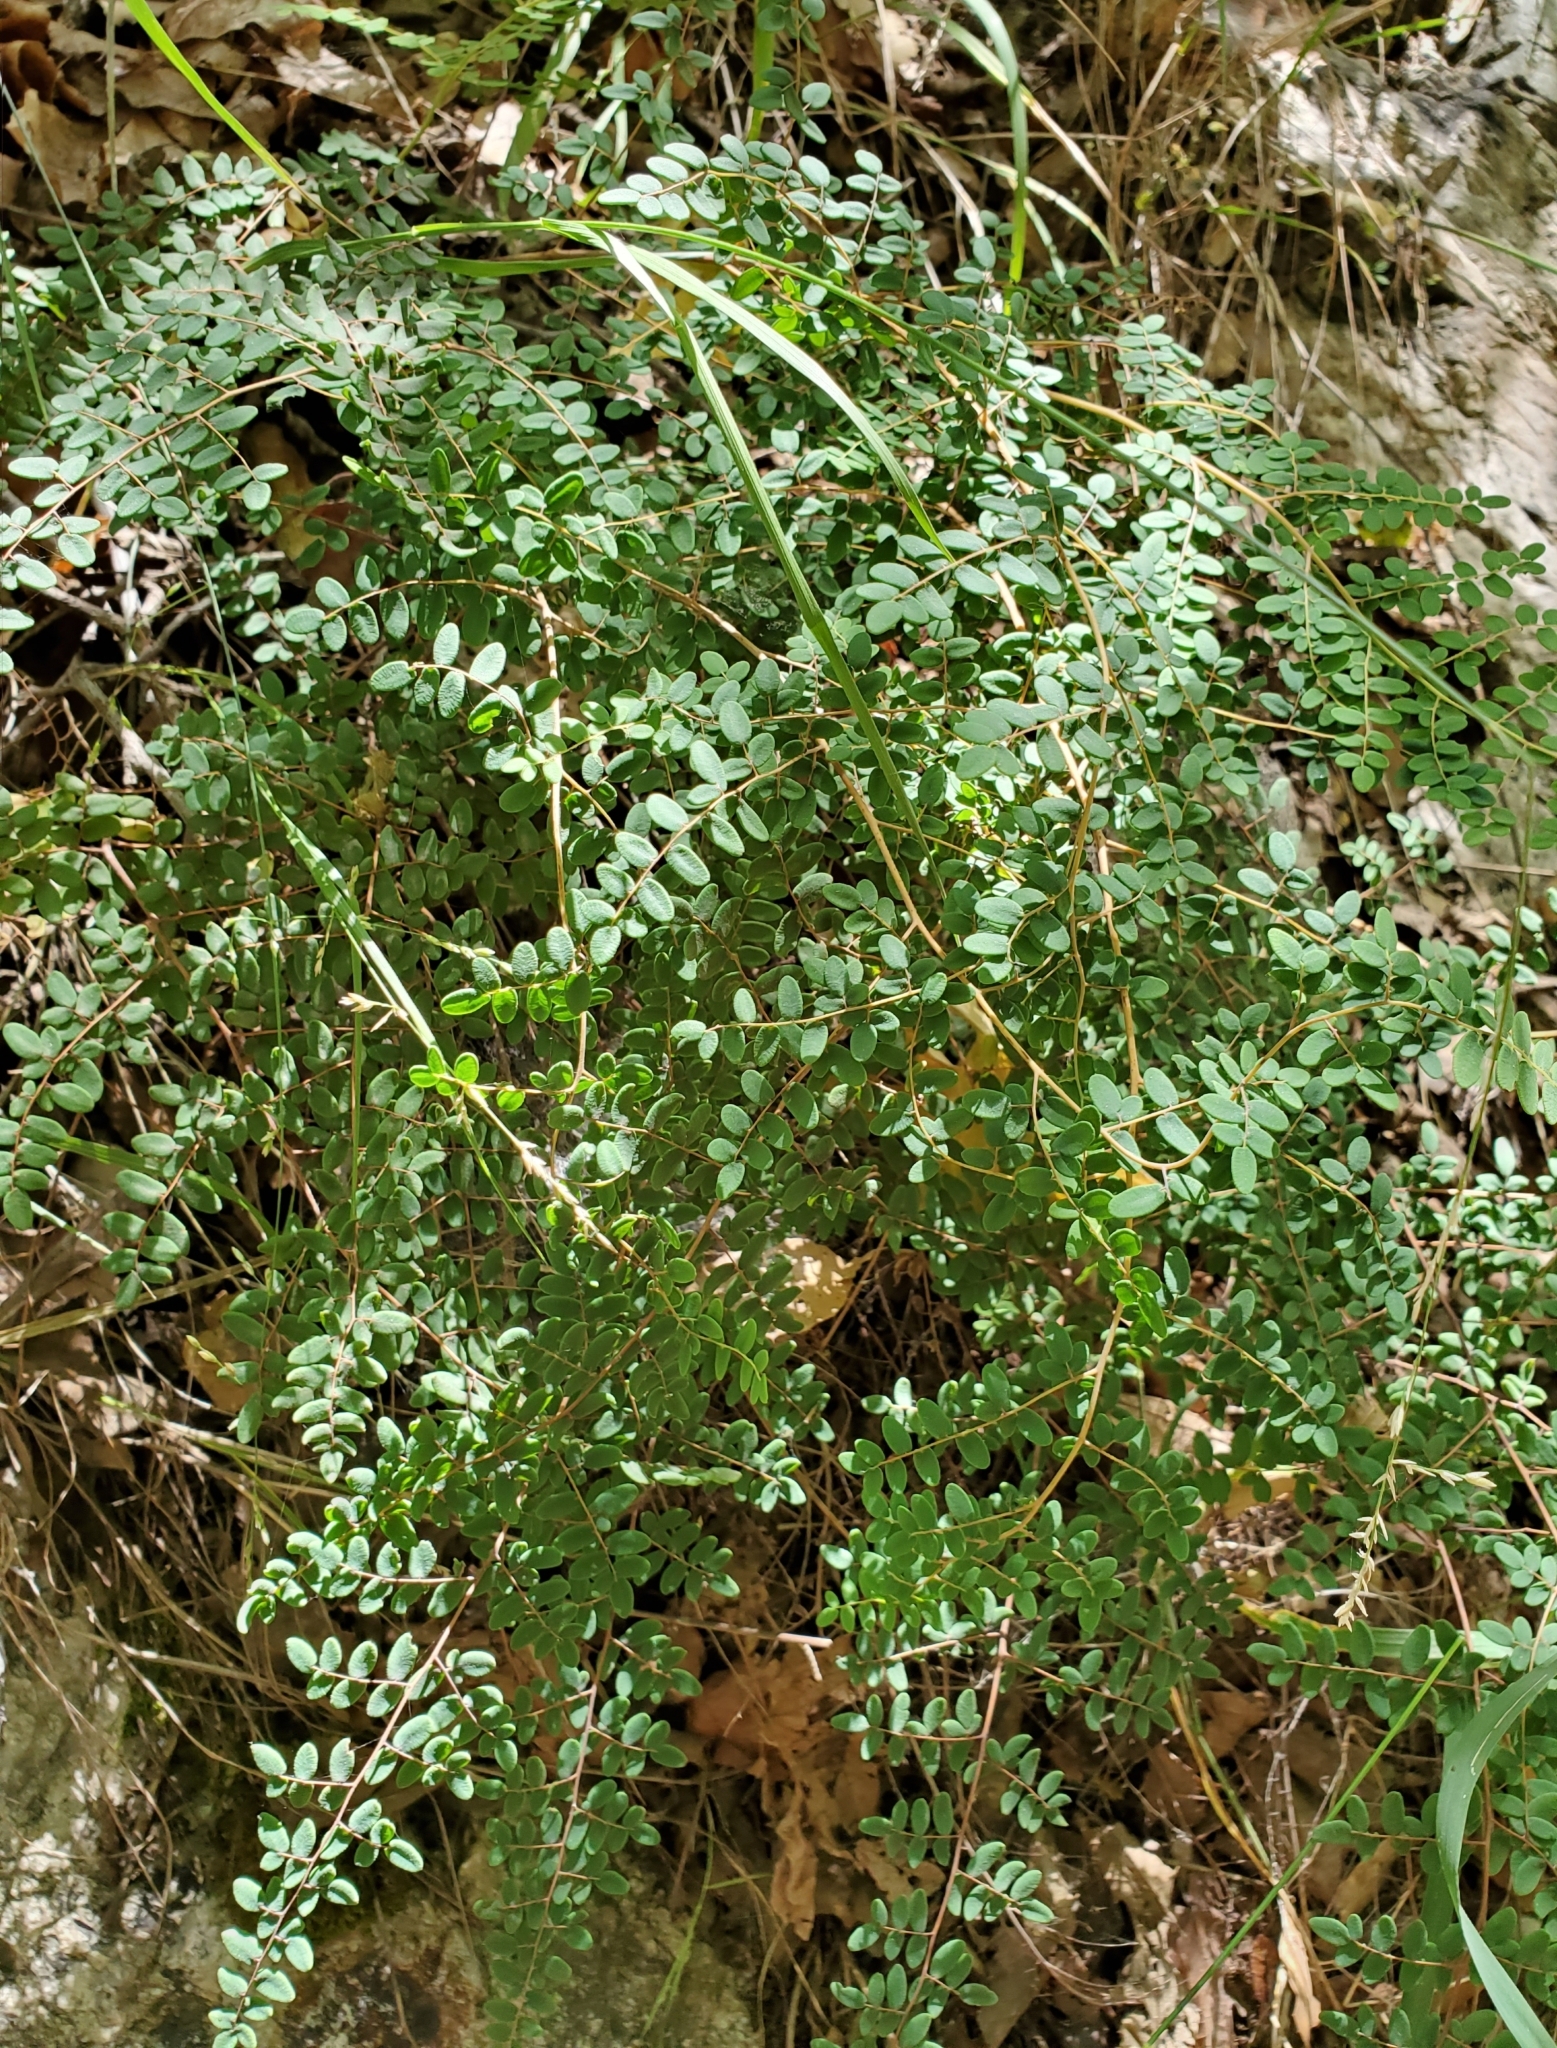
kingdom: Plantae
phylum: Tracheophyta
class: Polypodiopsida
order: Polypodiales
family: Pteridaceae
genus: Pellaea
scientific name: Pellaea andromedifolia
